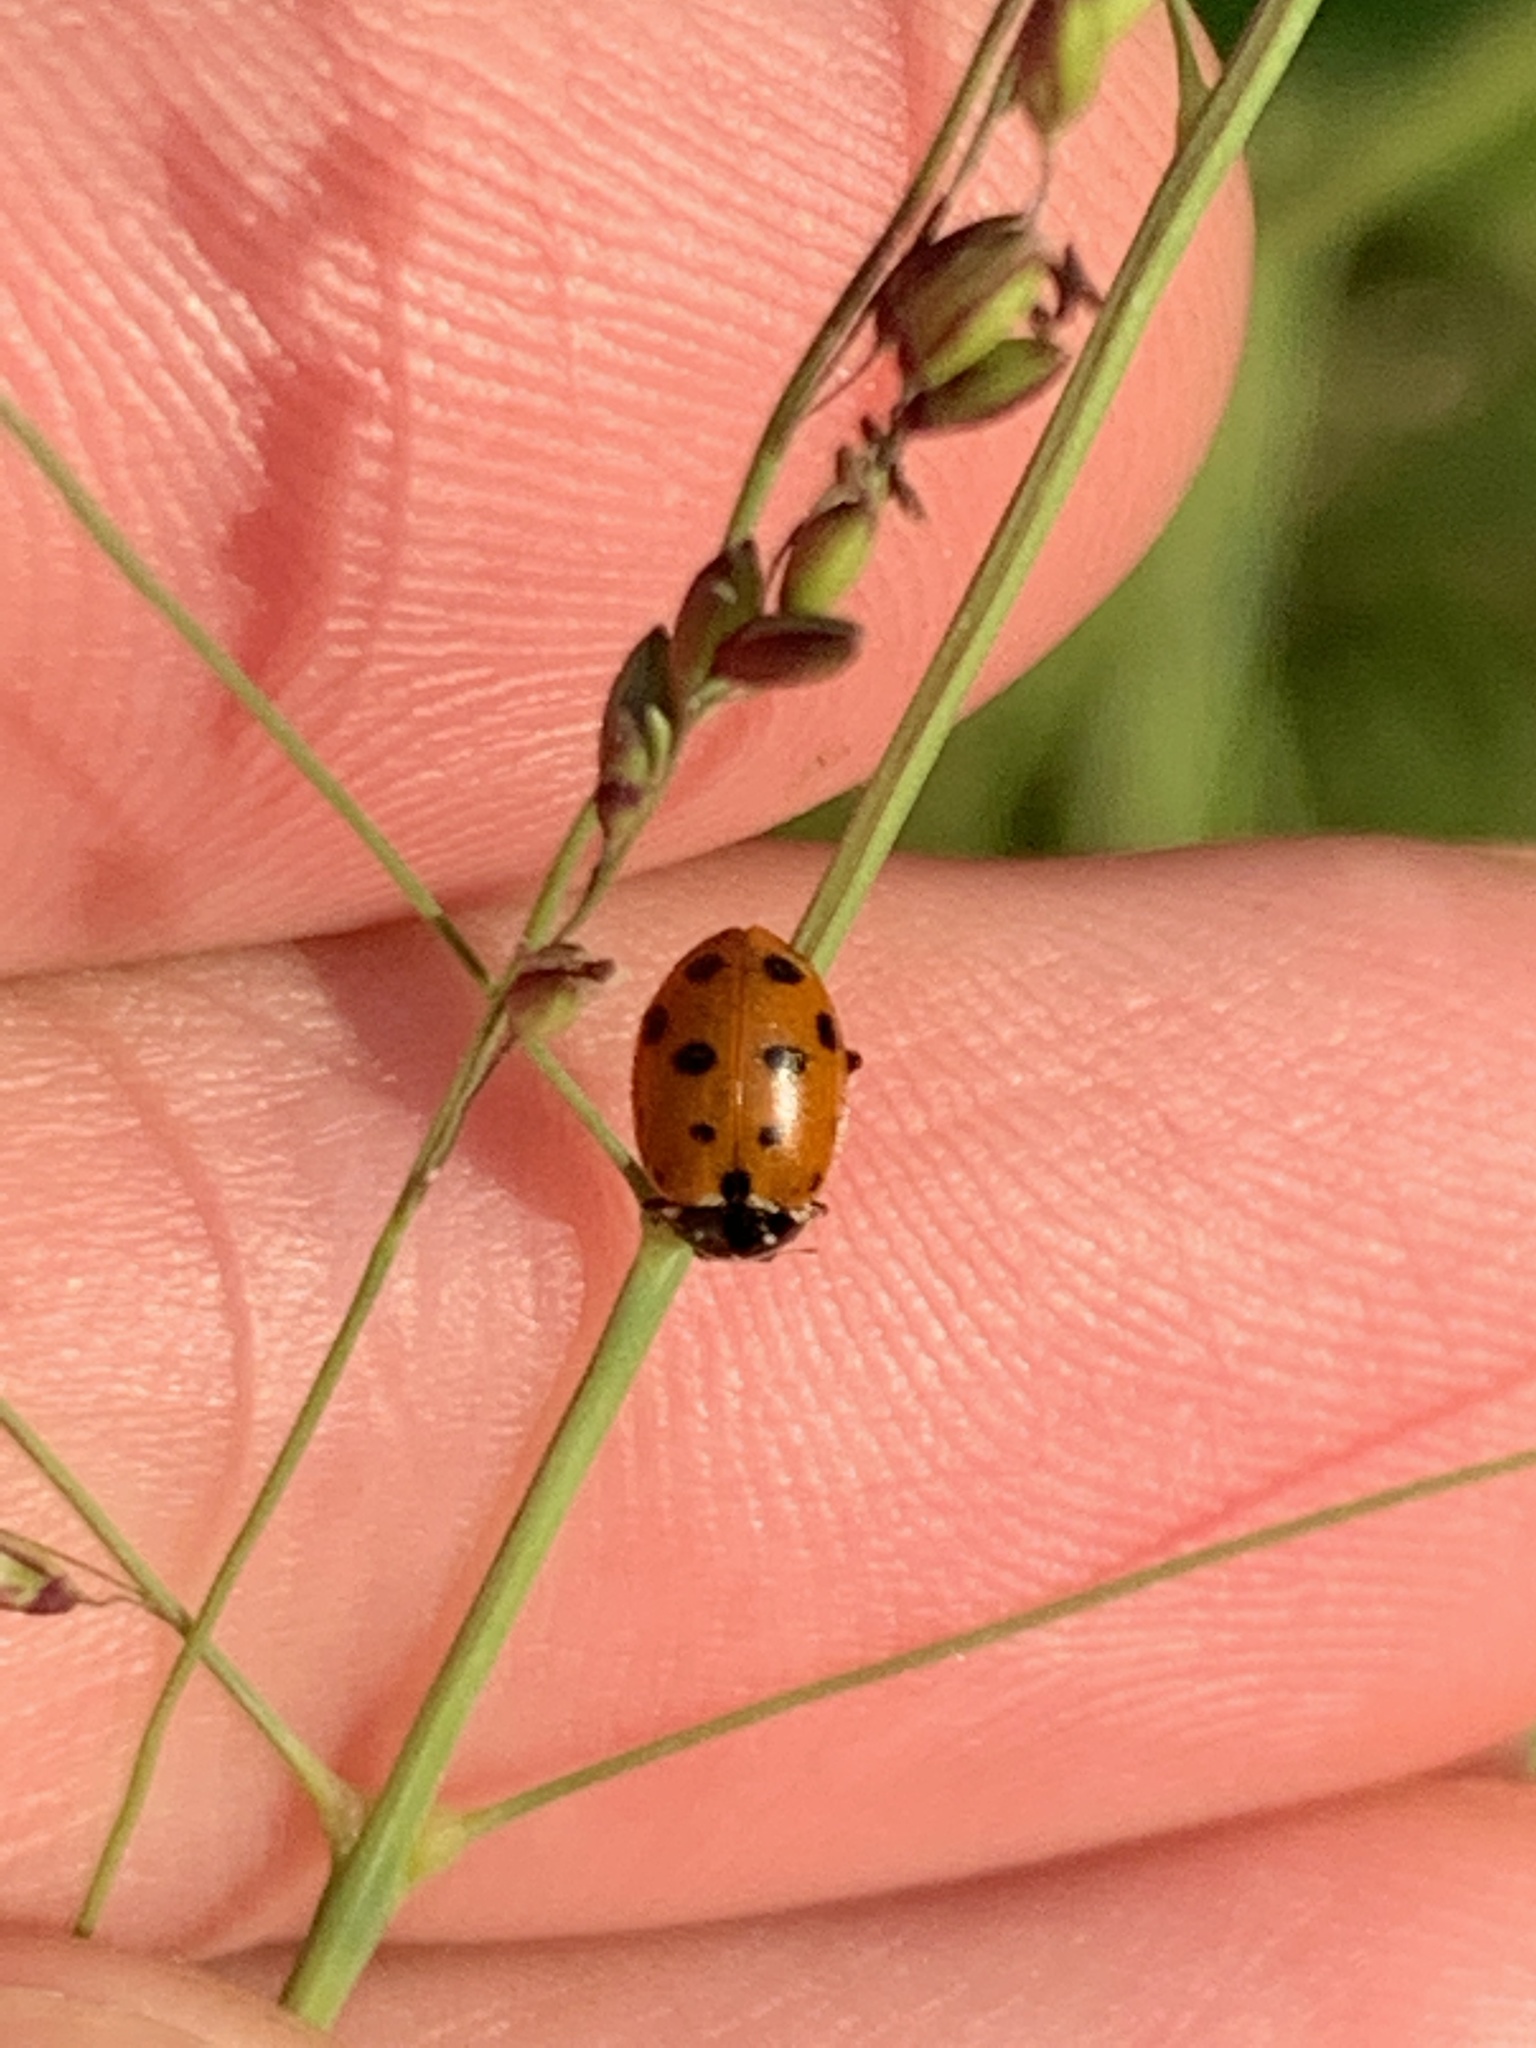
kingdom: Animalia
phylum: Arthropoda
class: Insecta
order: Coleoptera
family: Coccinellidae
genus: Hippodamia
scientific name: Hippodamia variegata
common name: Ladybird beetle
